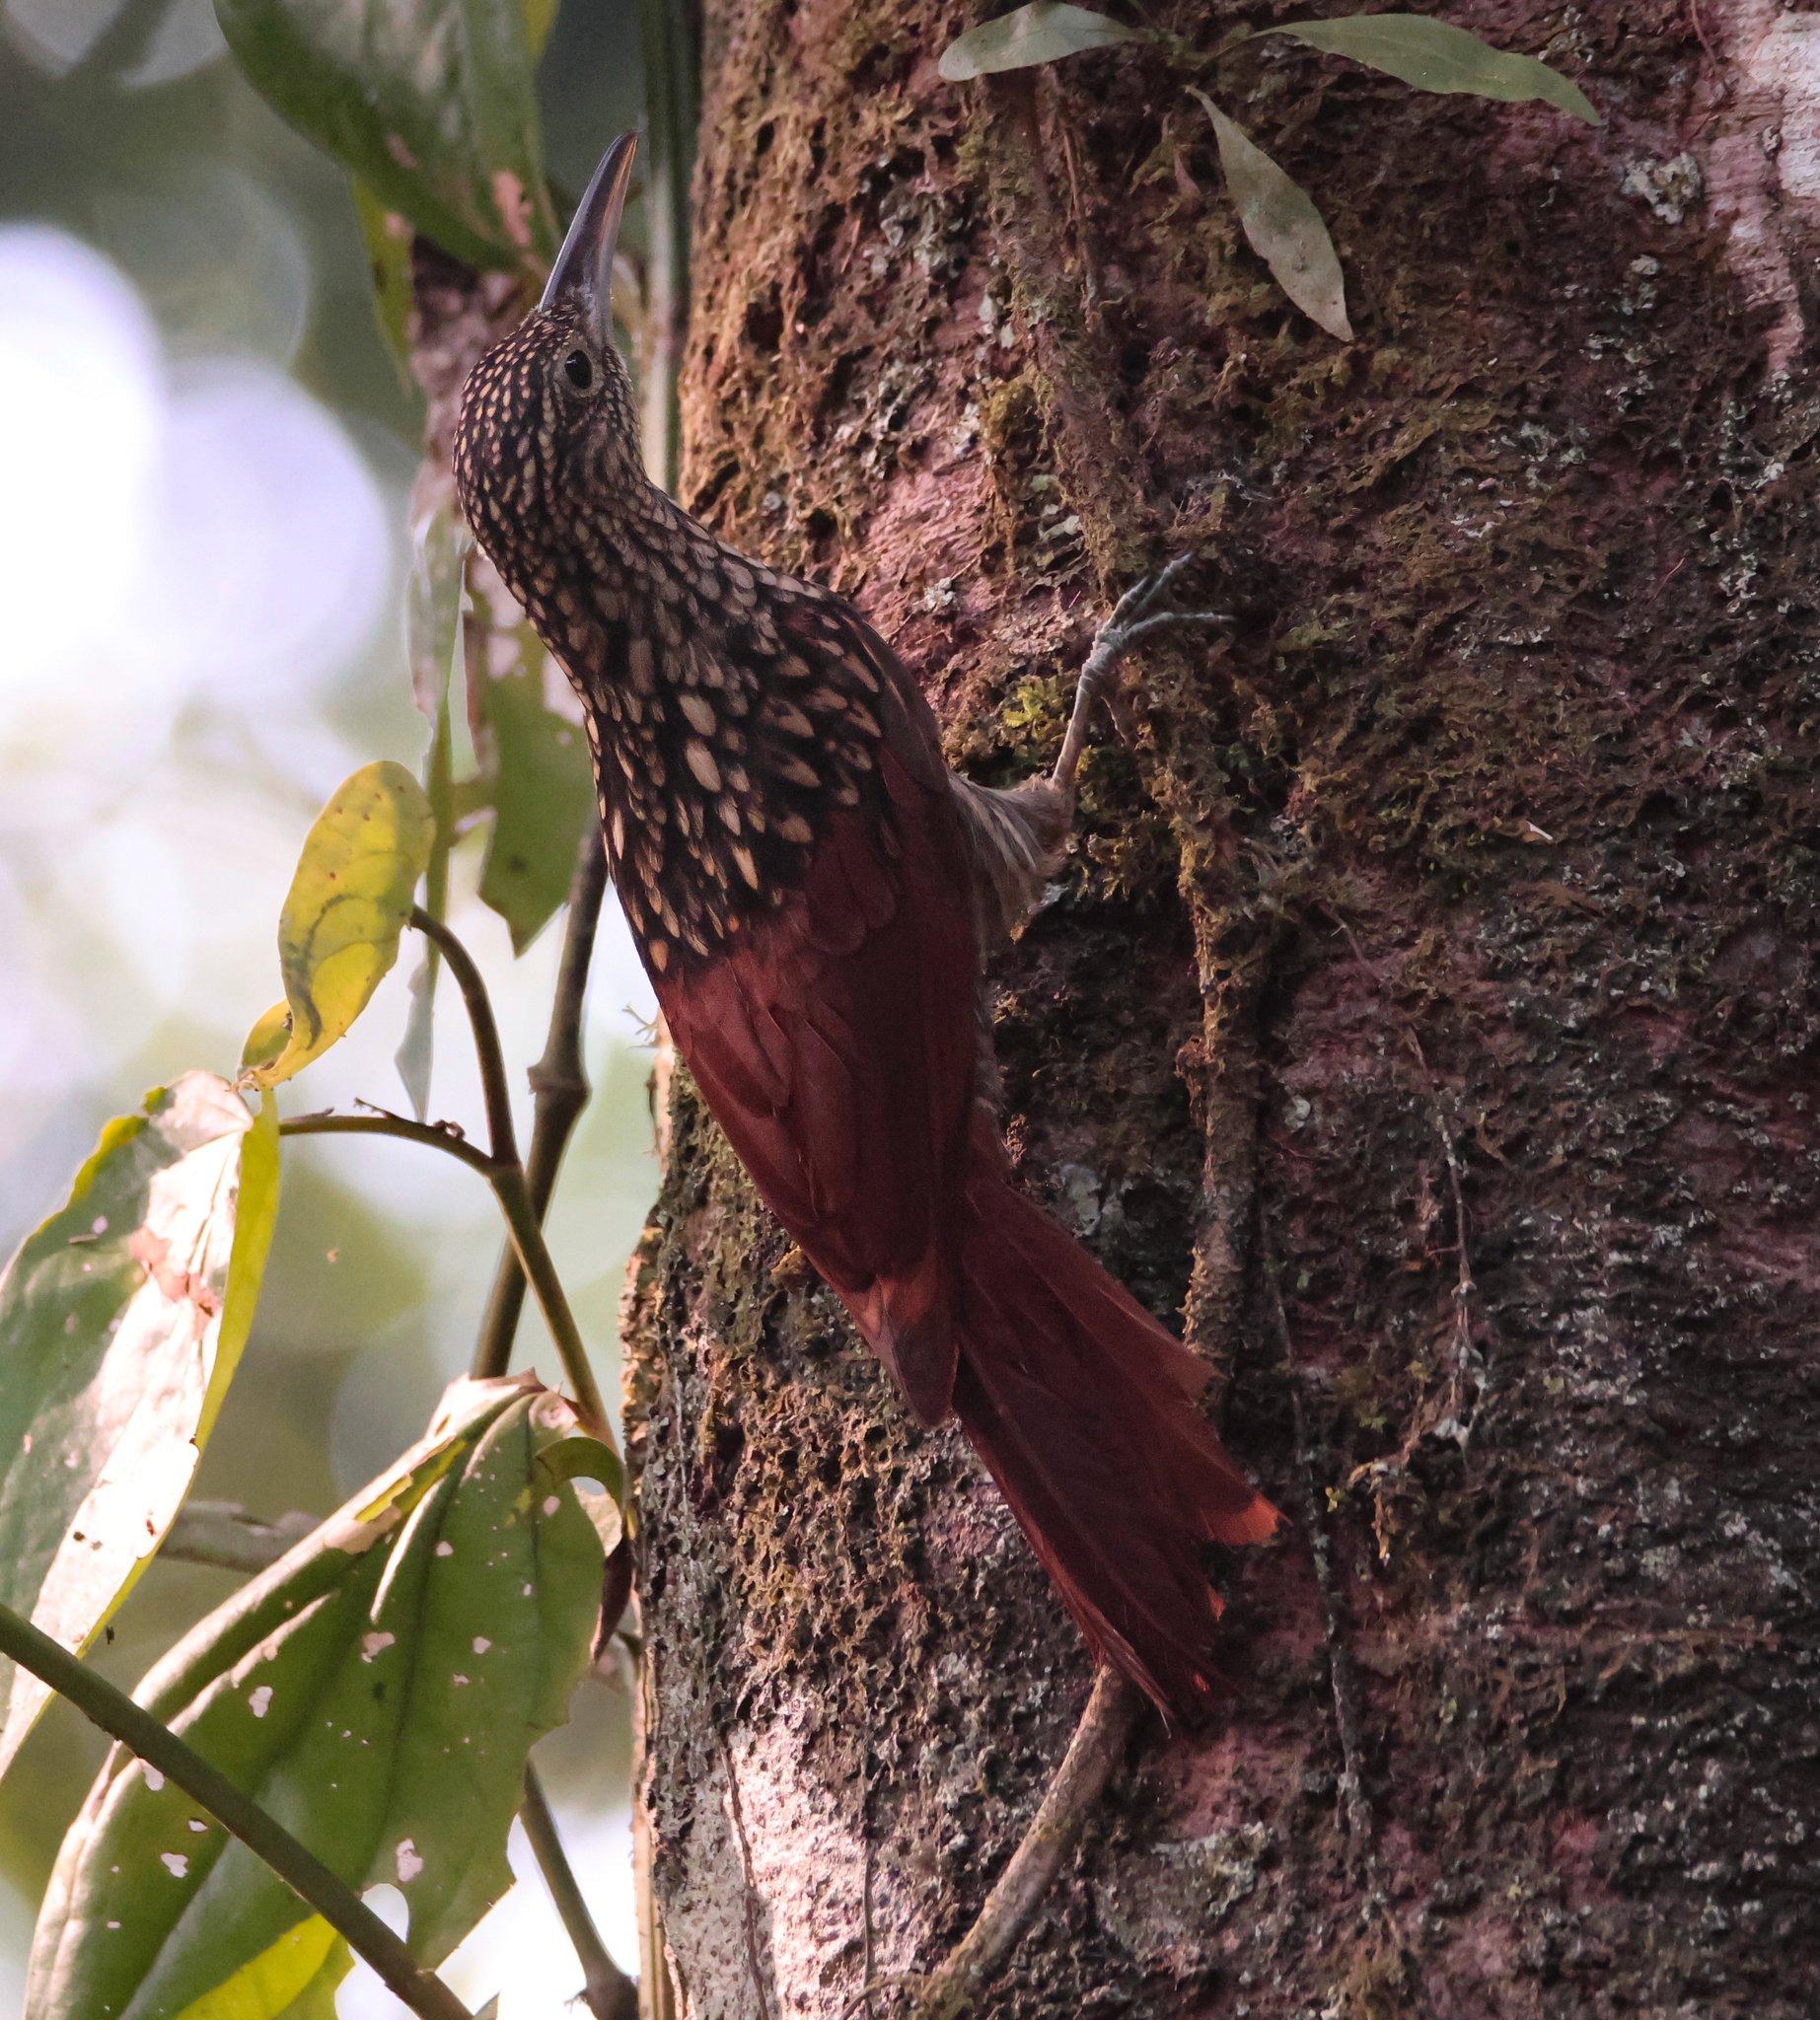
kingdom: Animalia
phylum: Chordata
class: Aves
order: Passeriformes
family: Furnariidae
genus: Xiphorhynchus
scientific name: Xiphorhynchus lachrymosus
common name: Black-striped woodcreeper
